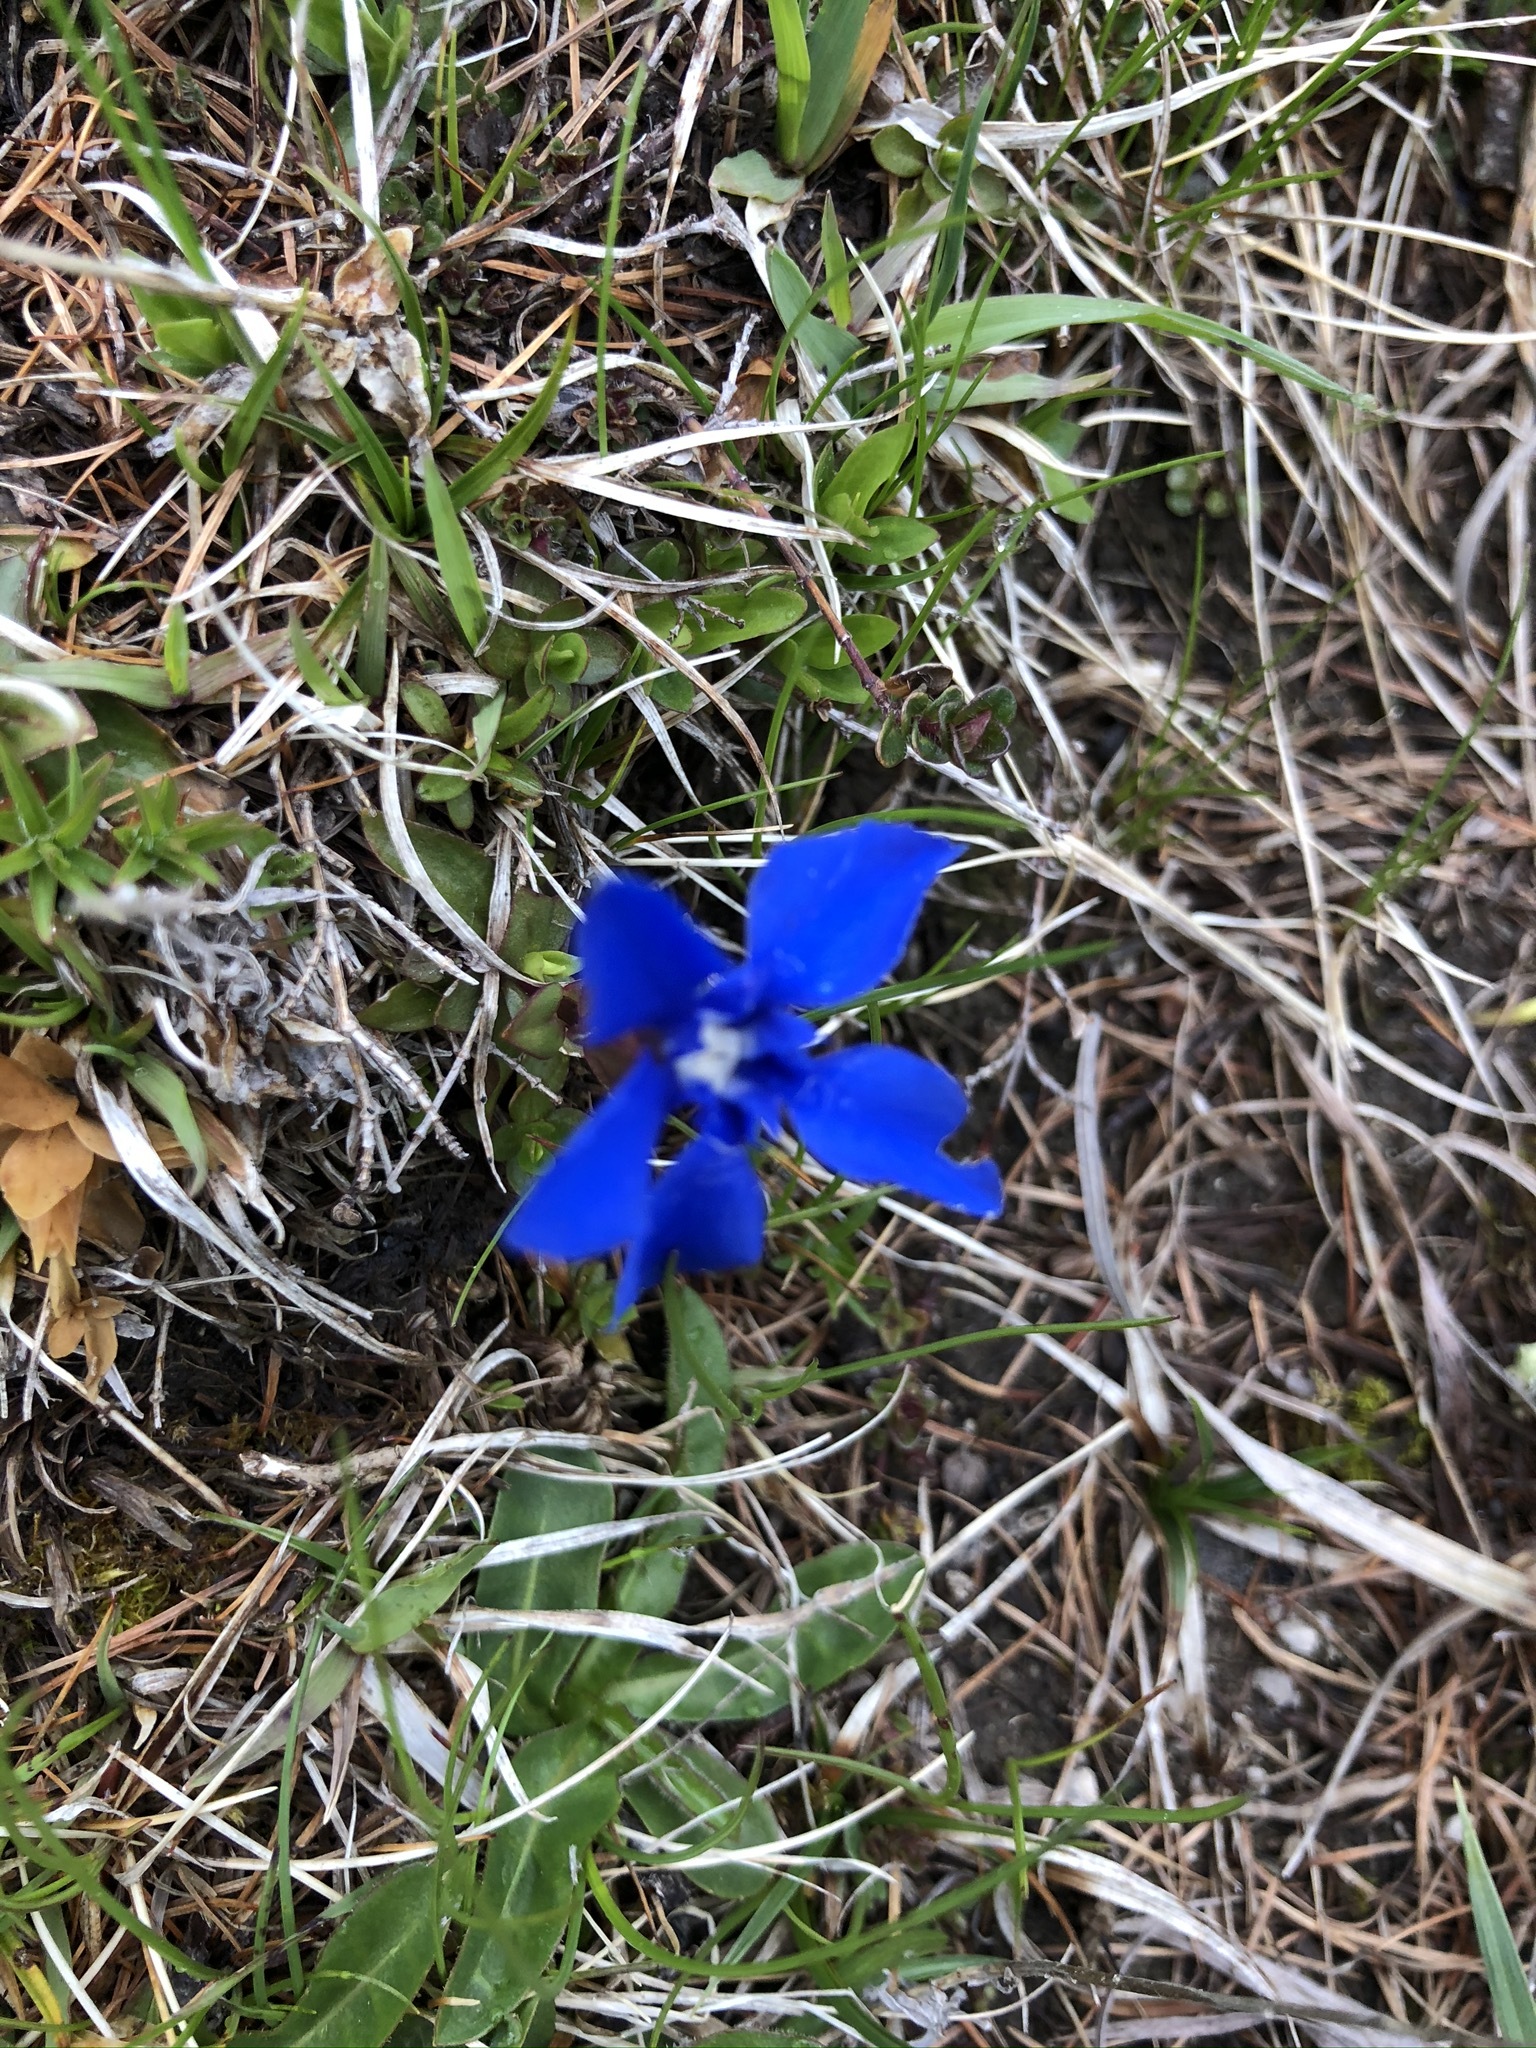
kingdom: Plantae
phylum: Tracheophyta
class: Magnoliopsida
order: Gentianales
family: Gentianaceae
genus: Gentiana
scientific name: Gentiana verna
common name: Spring gentian
